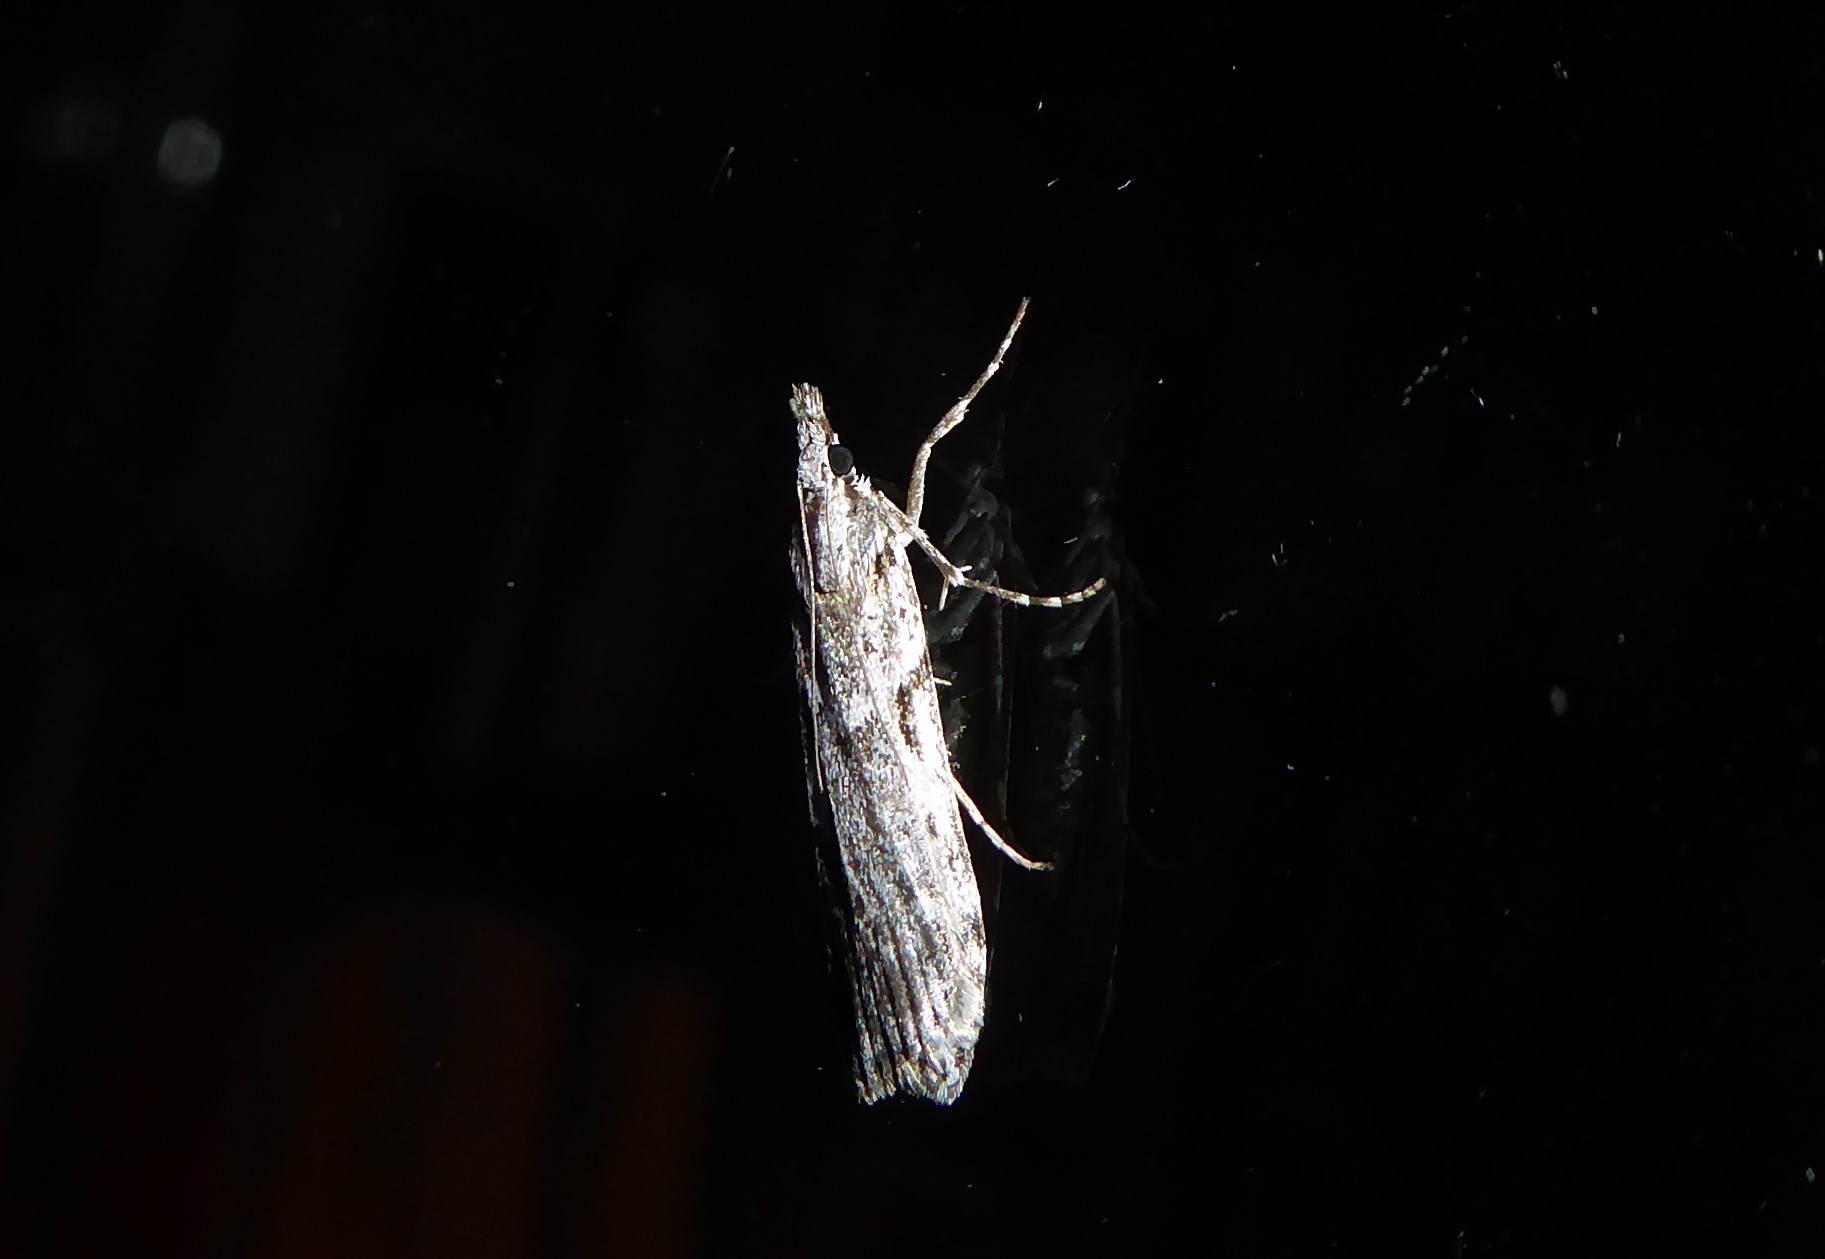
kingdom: Animalia
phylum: Arthropoda
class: Insecta
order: Lepidoptera
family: Crambidae
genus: Scoparia
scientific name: Scoparia halopis
